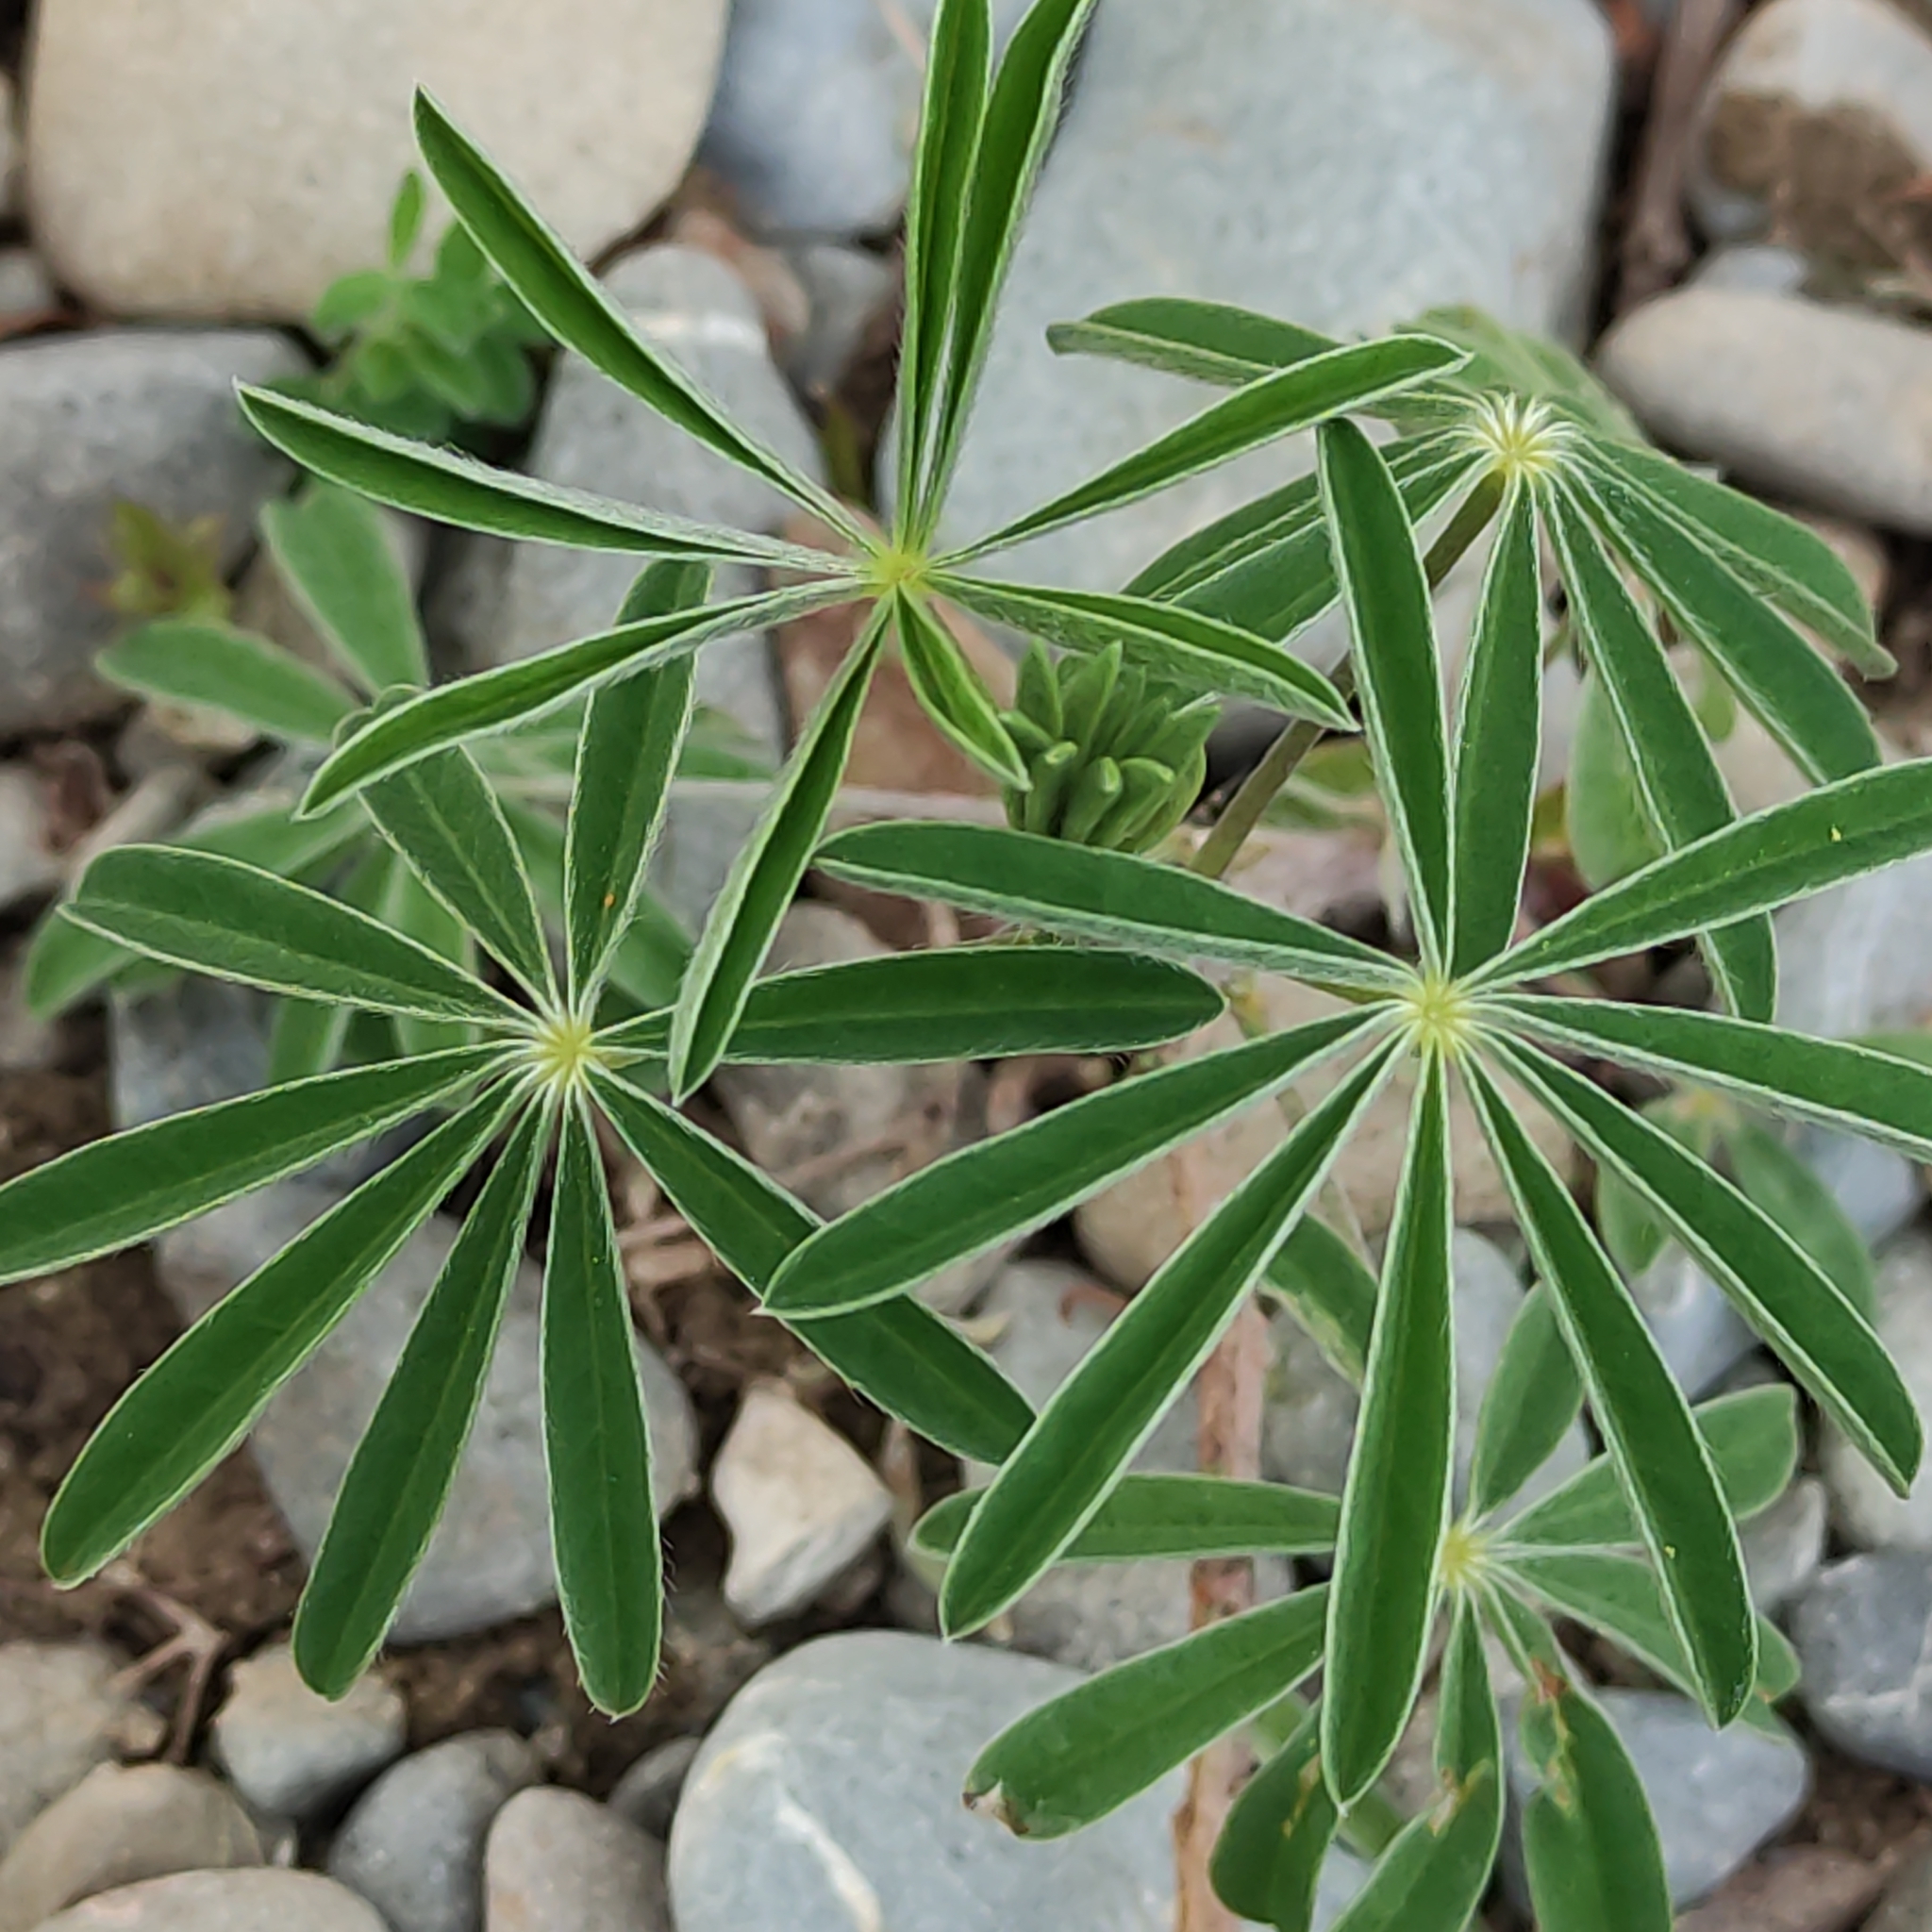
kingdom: Plantae
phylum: Tracheophyta
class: Magnoliopsida
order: Fabales
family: Fabaceae
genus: Lupinus
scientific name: Lupinus arboreus
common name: Yellow bush lupine
